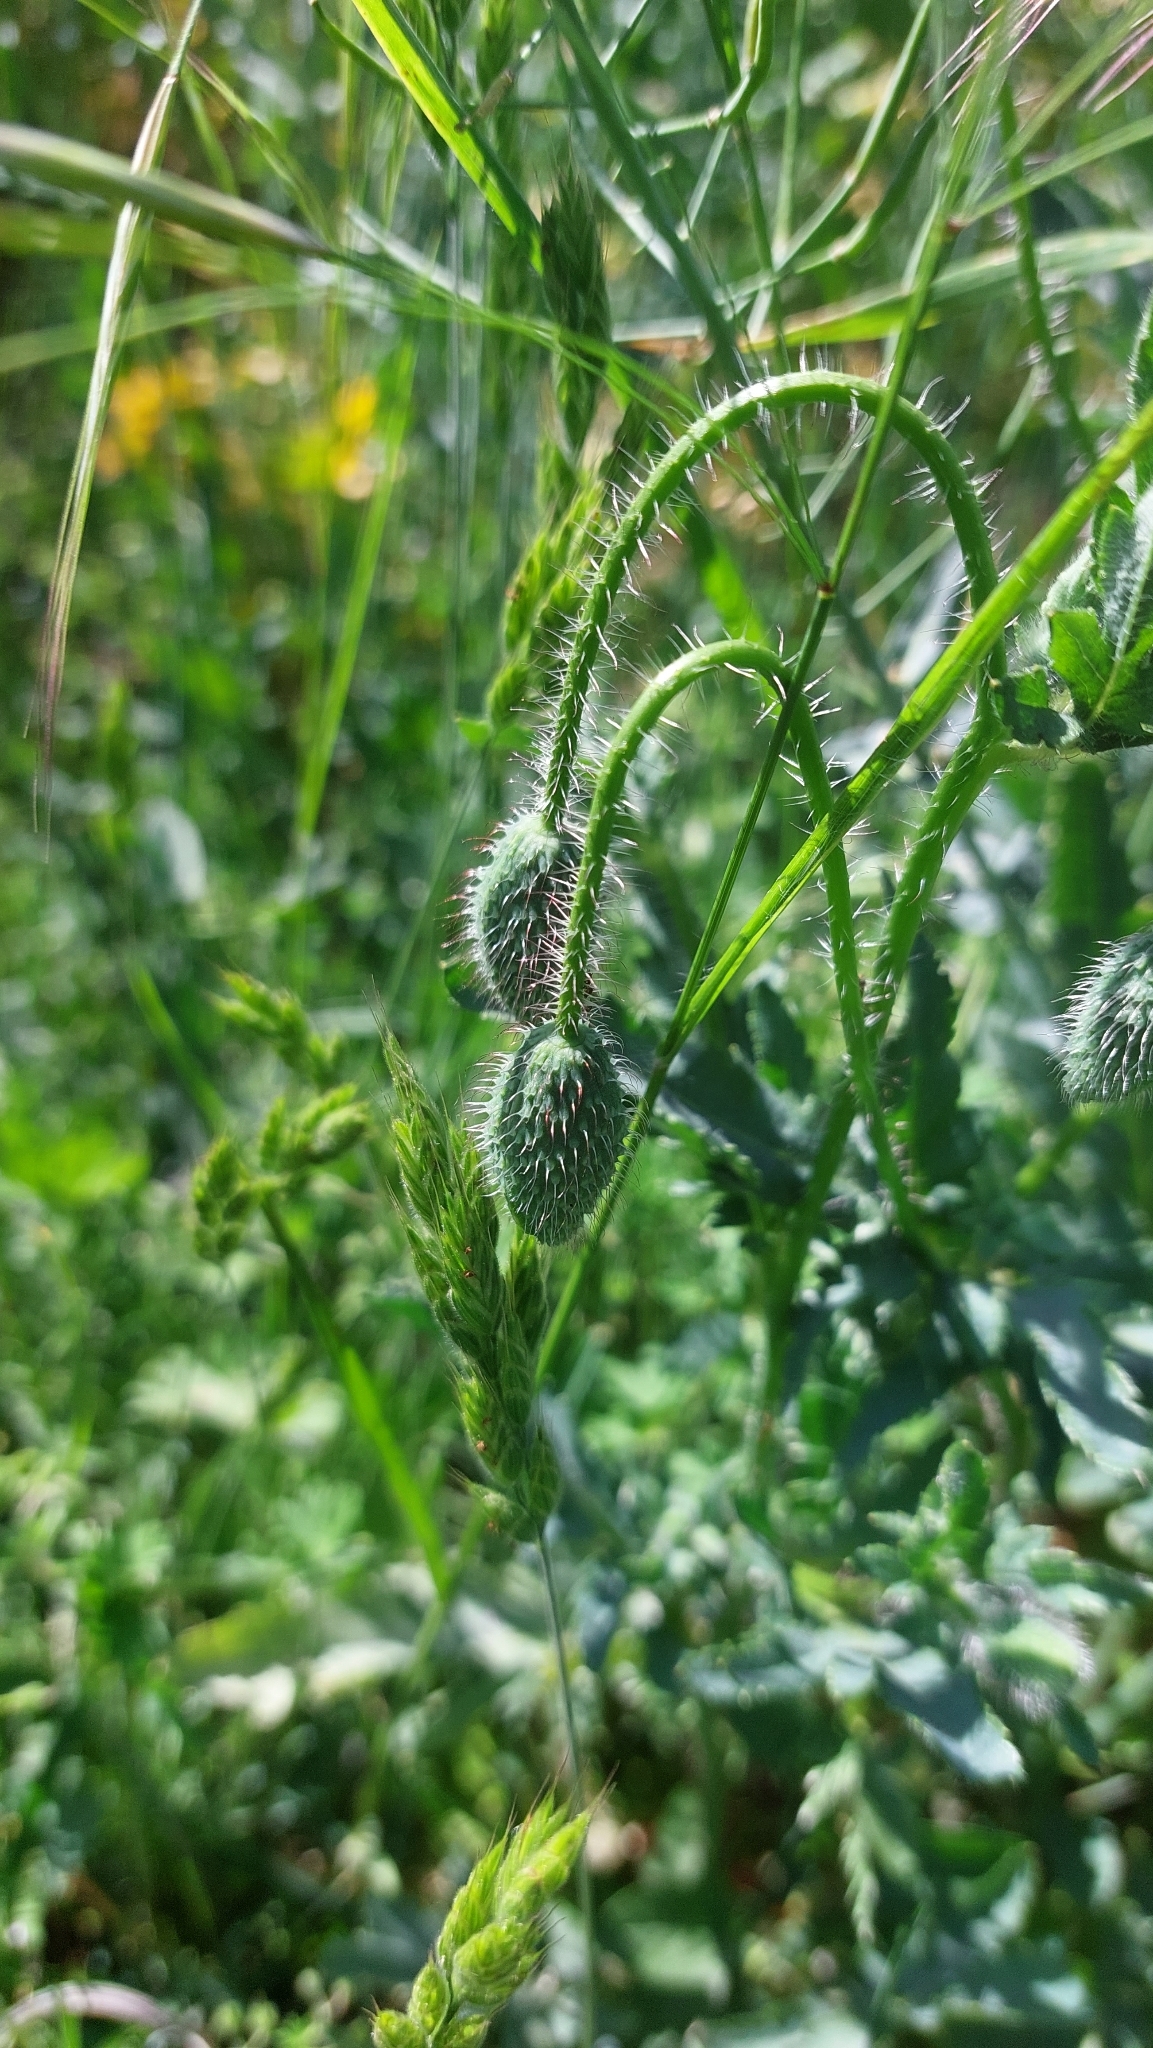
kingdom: Plantae
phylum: Tracheophyta
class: Magnoliopsida
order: Ranunculales
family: Papaveraceae
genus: Papaver
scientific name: Papaver rhoeas
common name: Corn poppy
